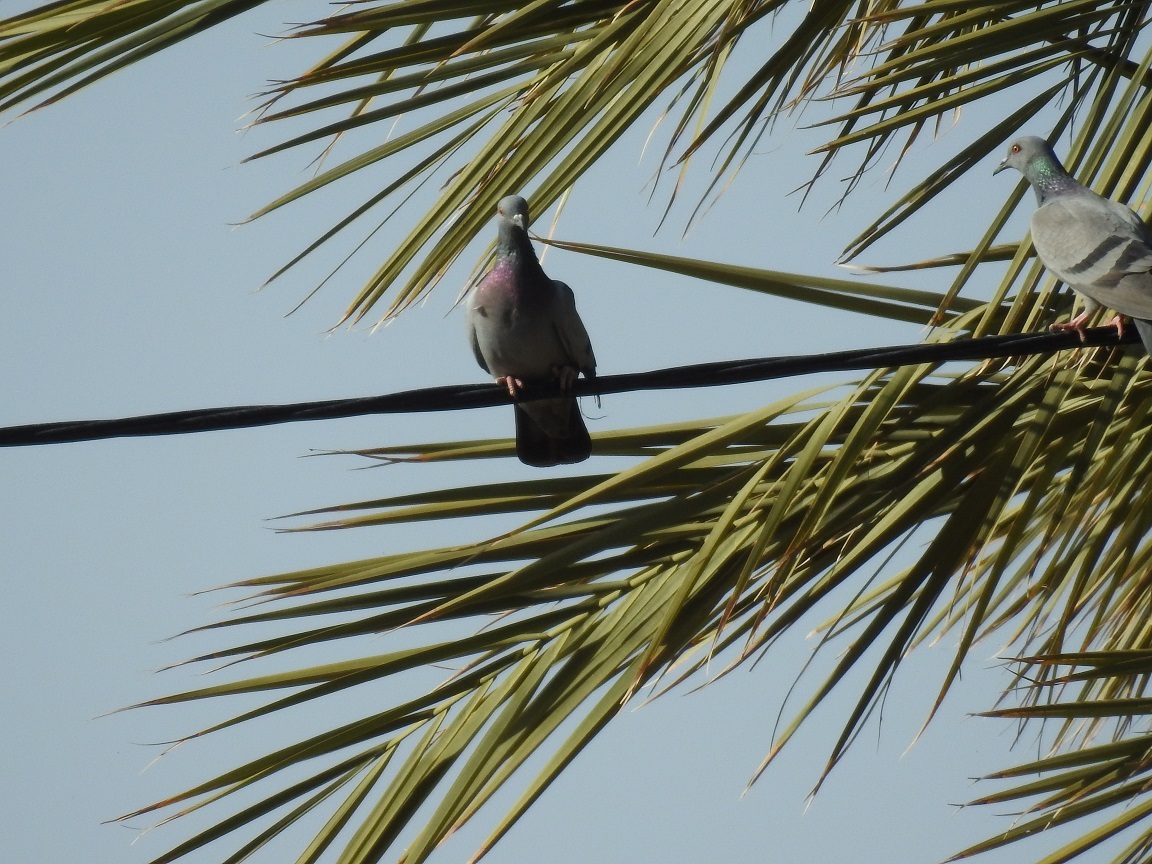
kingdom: Animalia
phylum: Chordata
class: Aves
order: Columbiformes
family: Columbidae
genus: Columba
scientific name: Columba livia
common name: Rock pigeon
